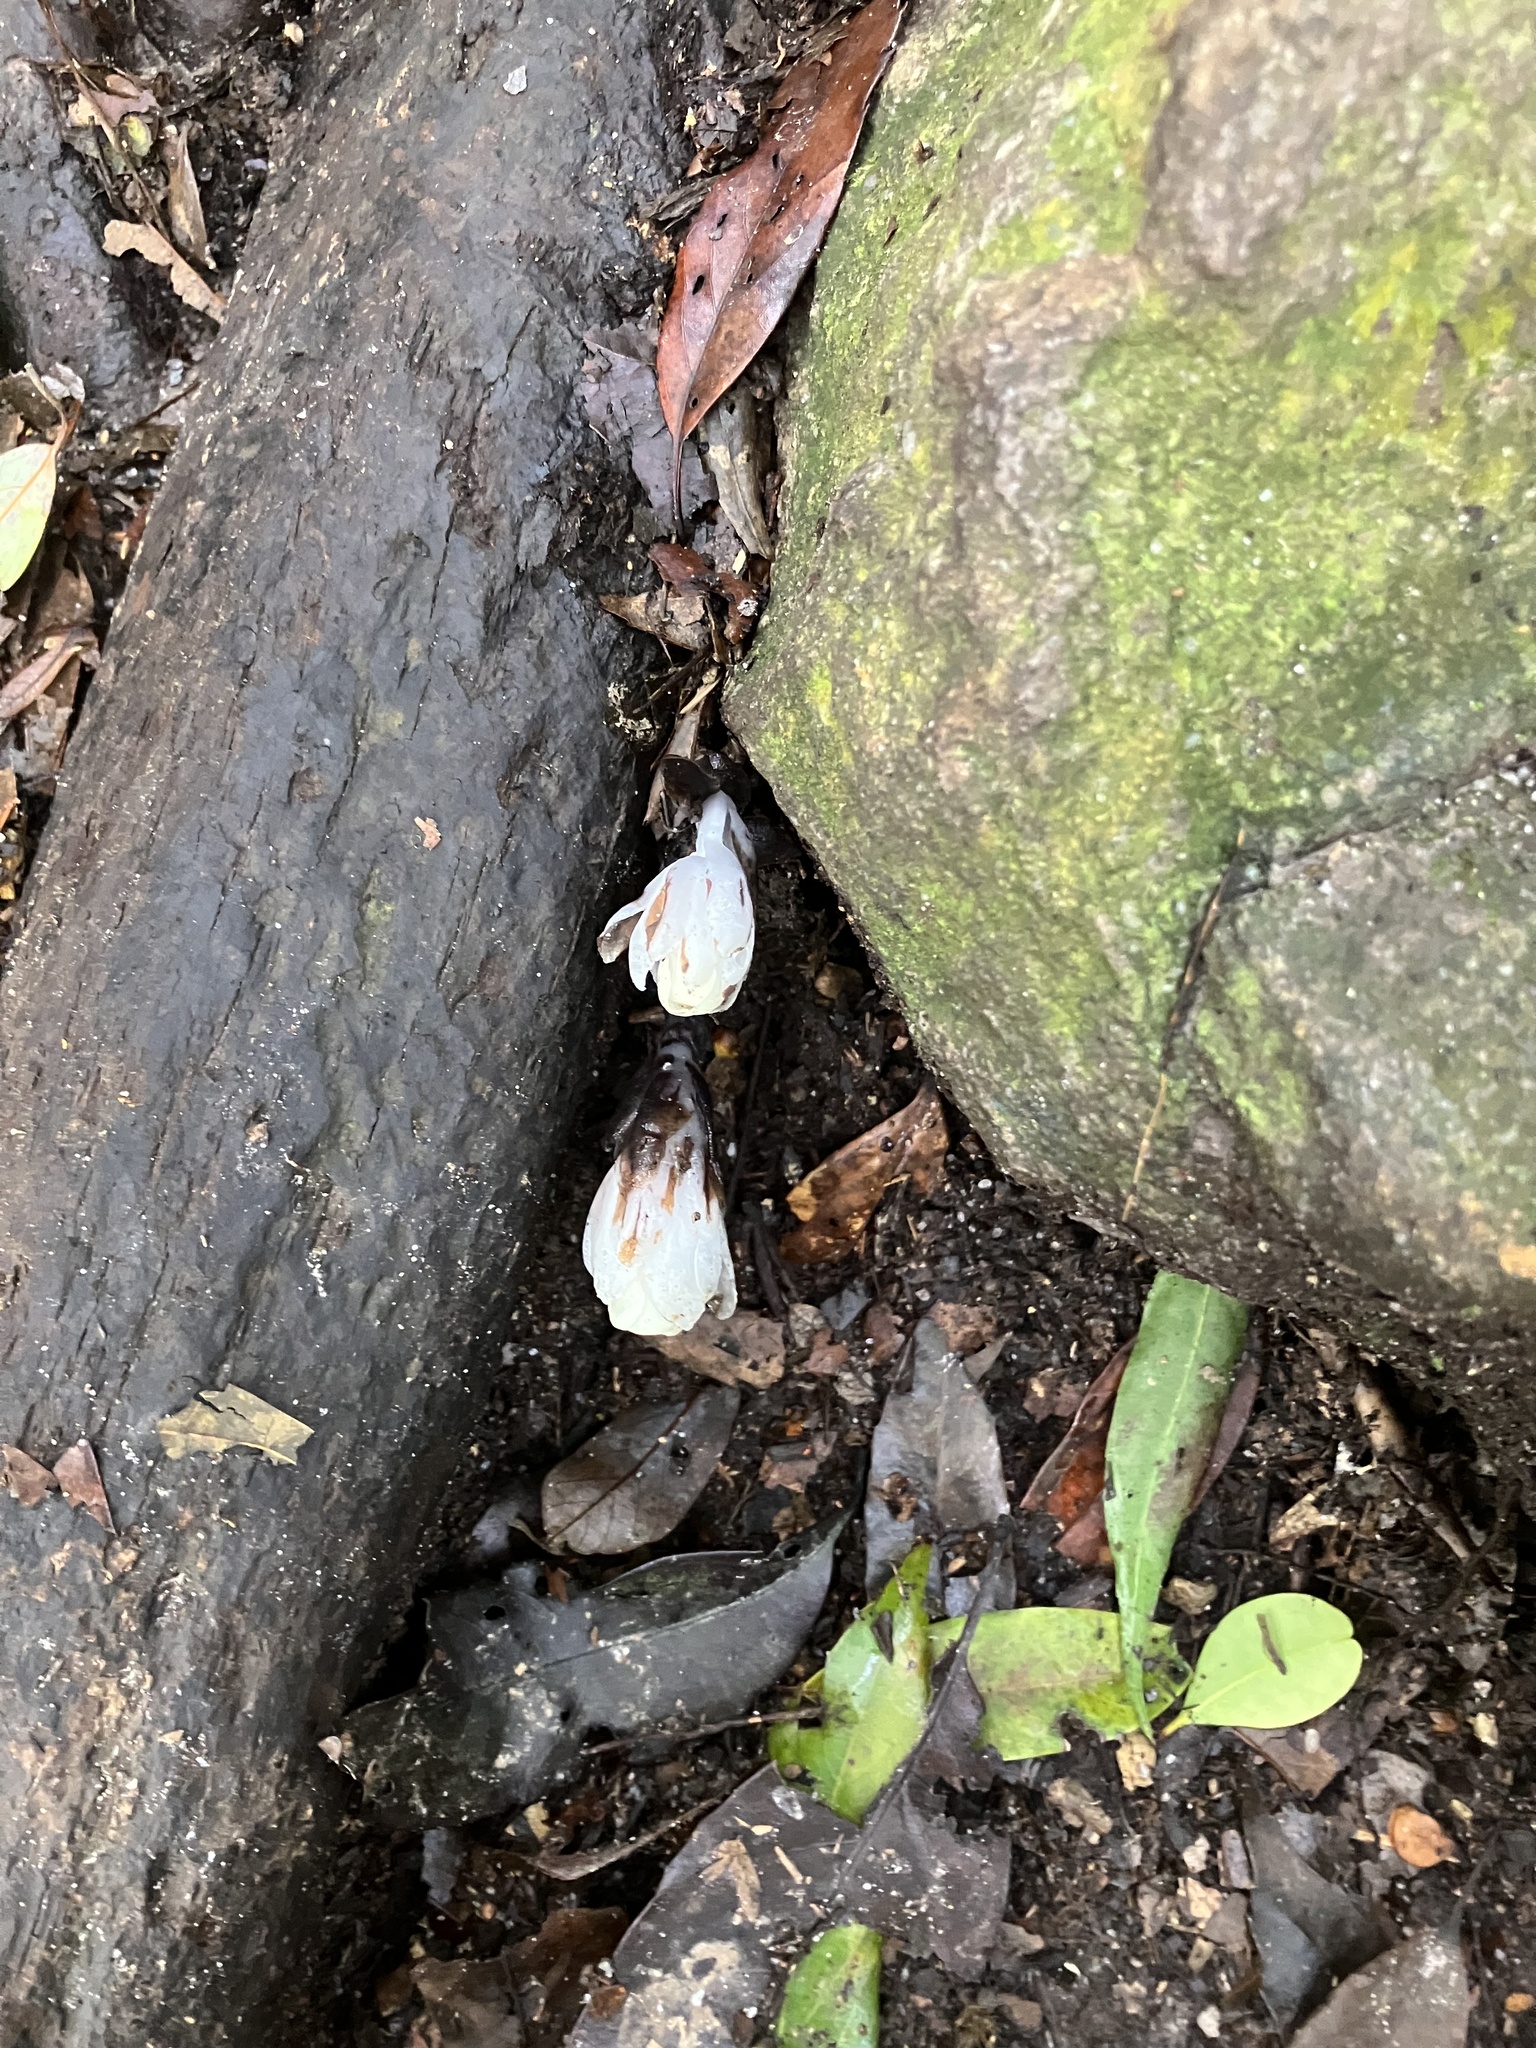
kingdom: Plantae
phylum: Tracheophyta
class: Magnoliopsida
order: Ericales
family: Ericaceae
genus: Monotropastrum
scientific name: Monotropastrum humile
